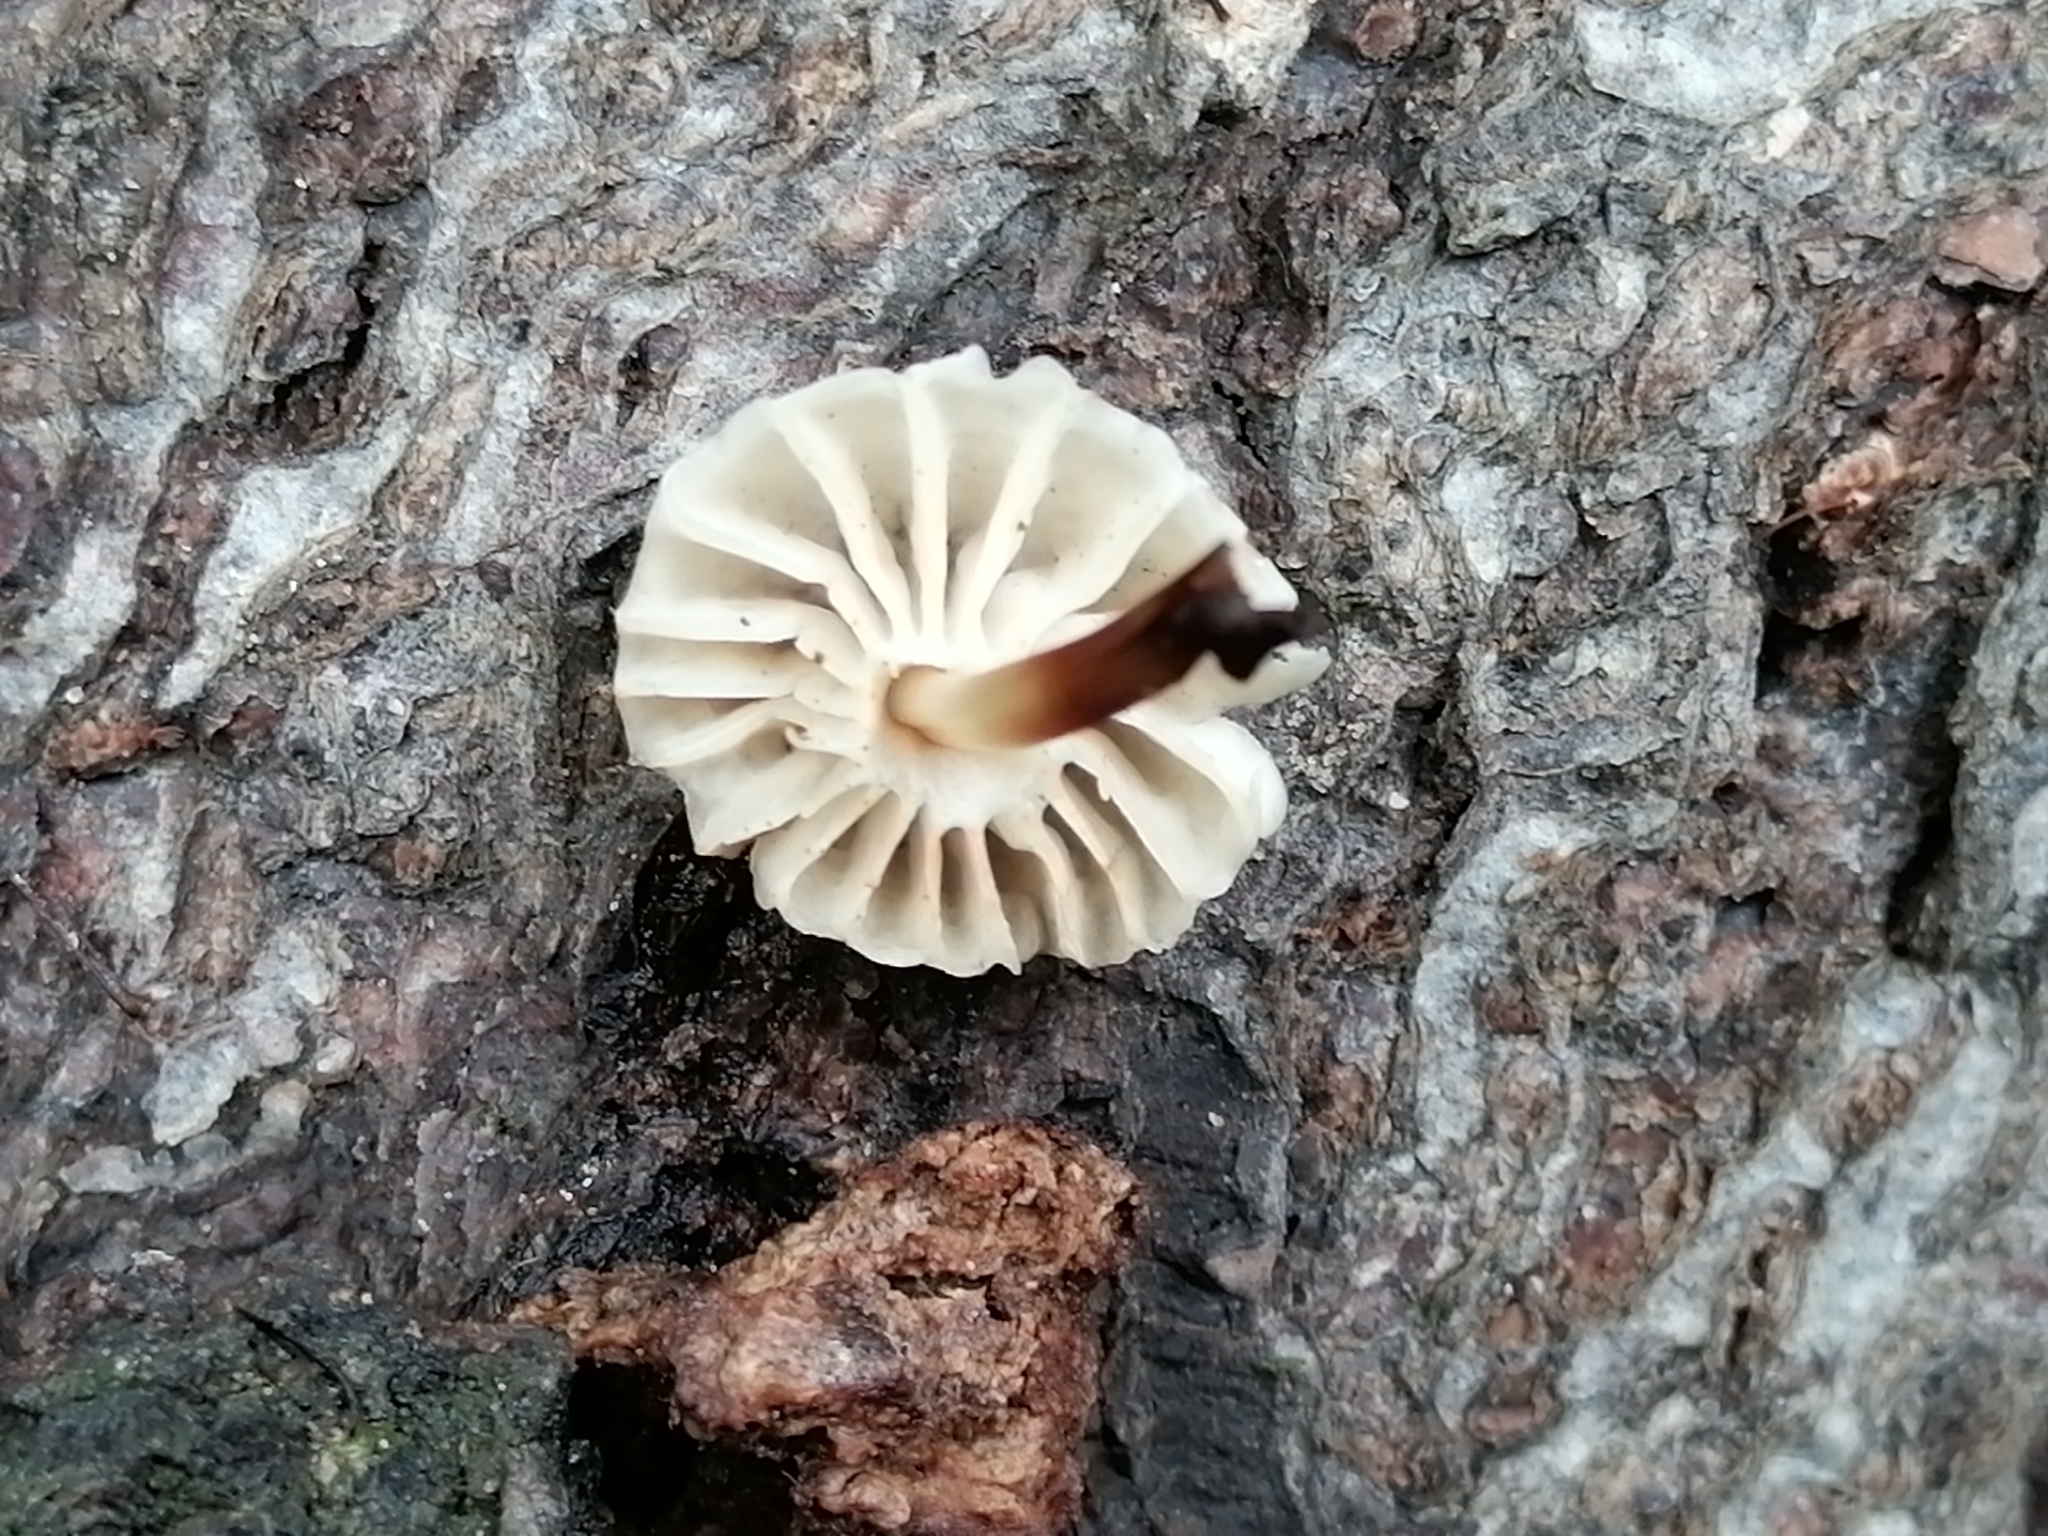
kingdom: Fungi
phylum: Basidiomycota
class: Agaricomycetes
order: Agaricales
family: Marasmiaceae
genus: Marasmius
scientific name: Marasmius rotula
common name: Collared parachute
